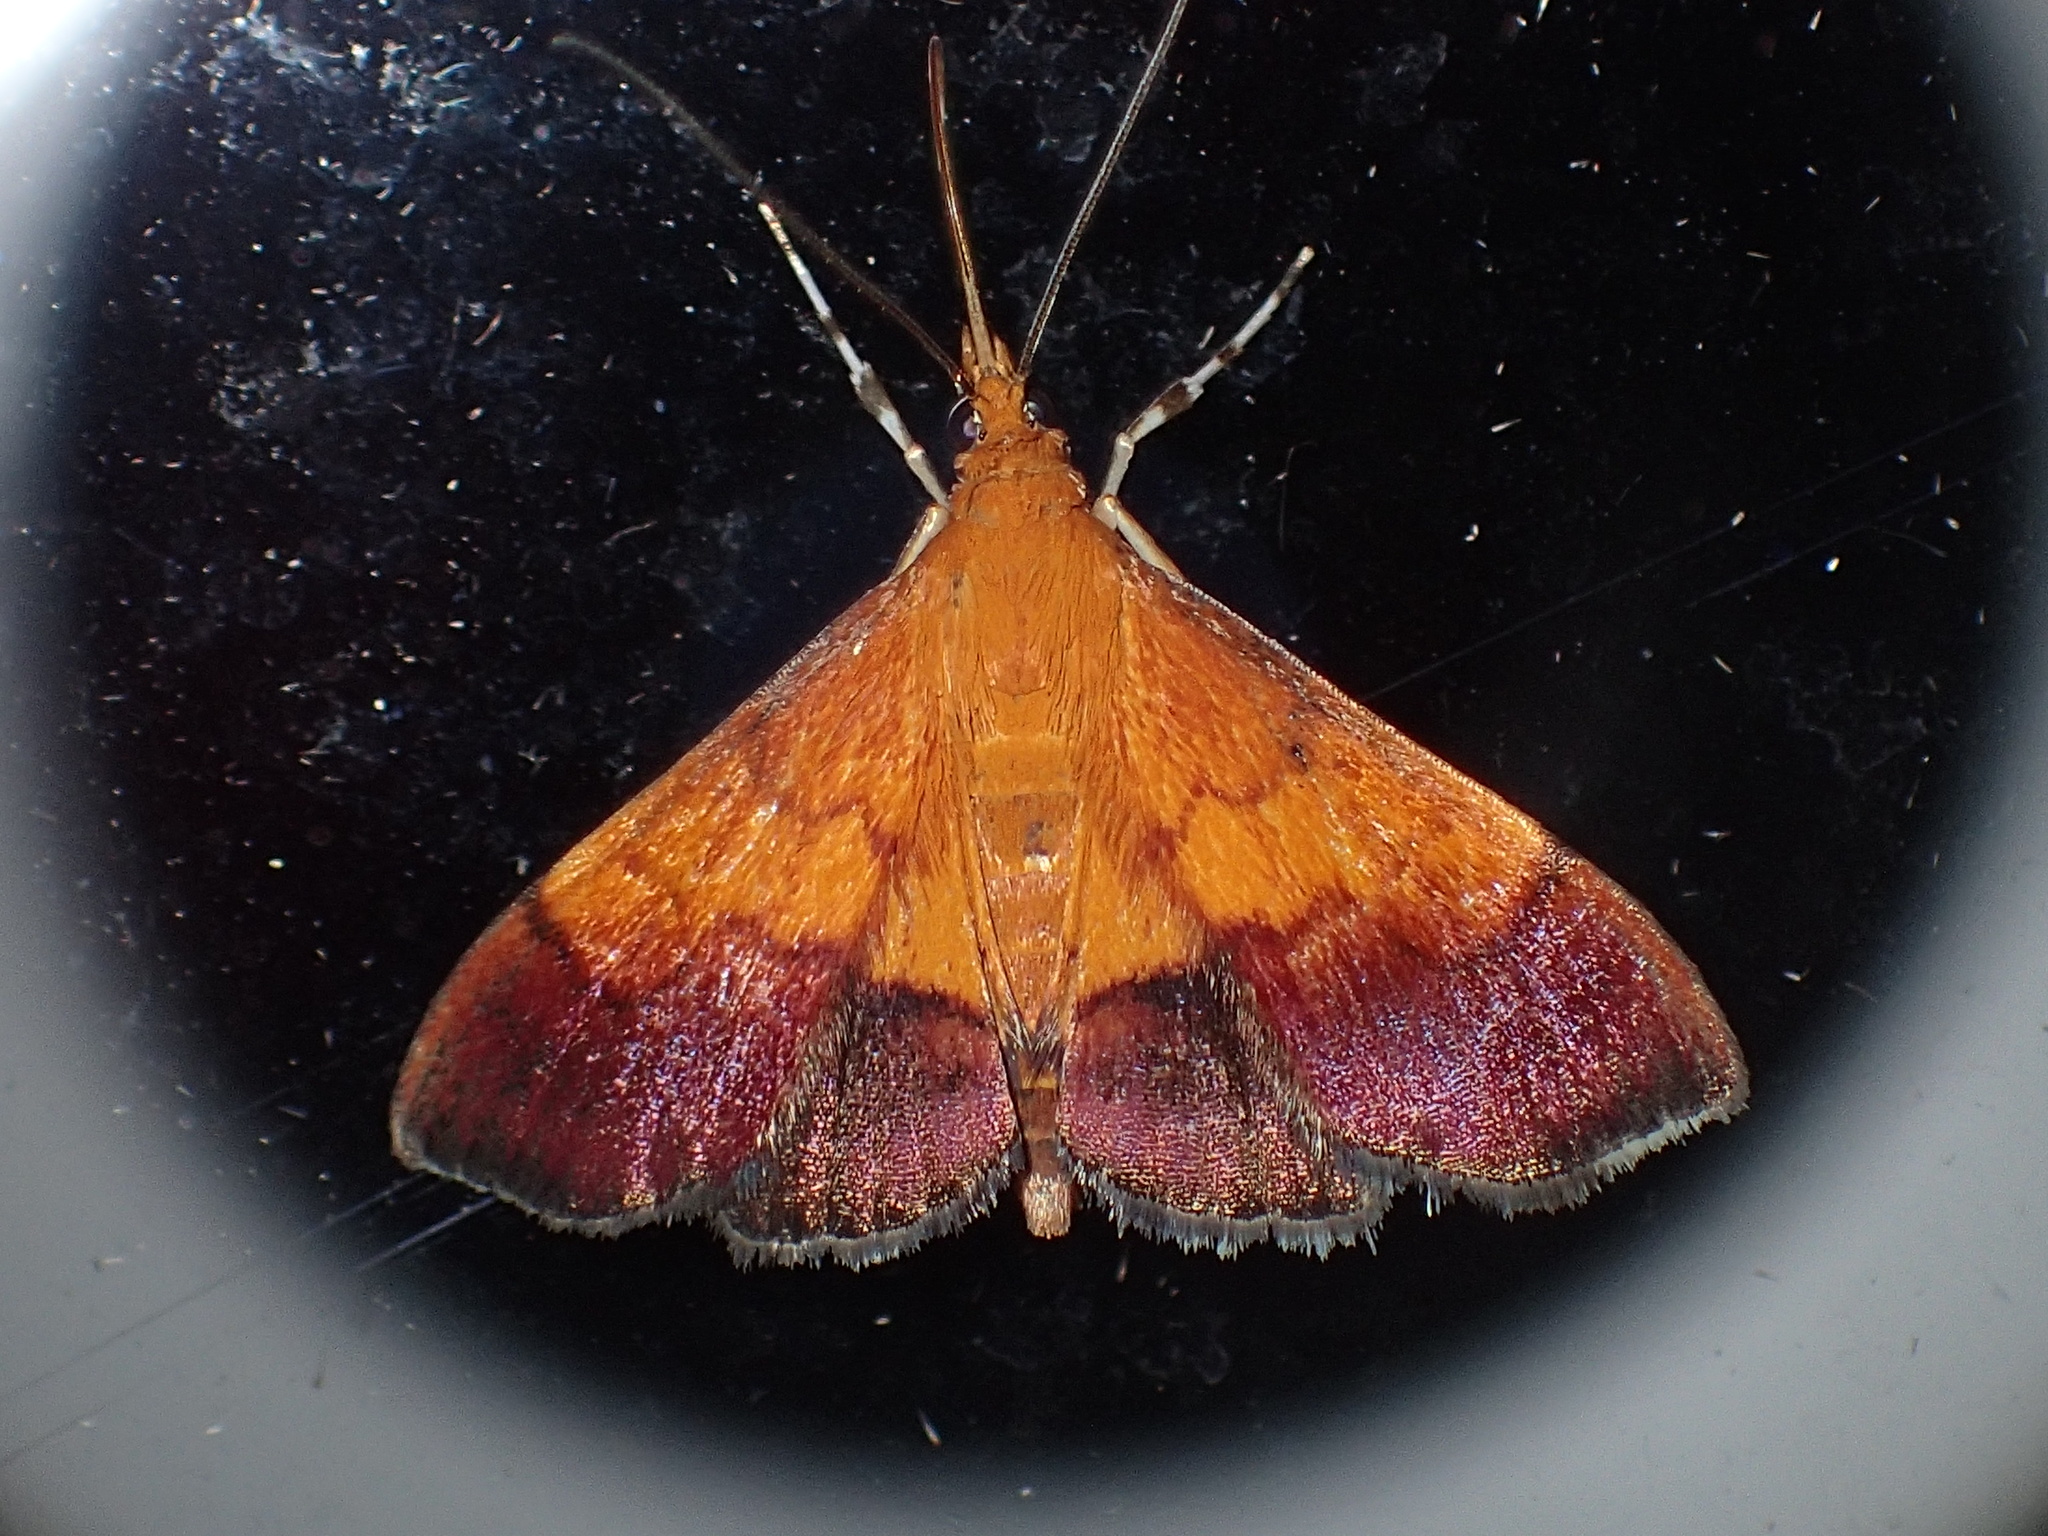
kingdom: Animalia
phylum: Arthropoda
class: Insecta
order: Lepidoptera
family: Crambidae
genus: Pyrausta
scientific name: Pyrausta bicoloralis
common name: Bicolored pyrausta moth
